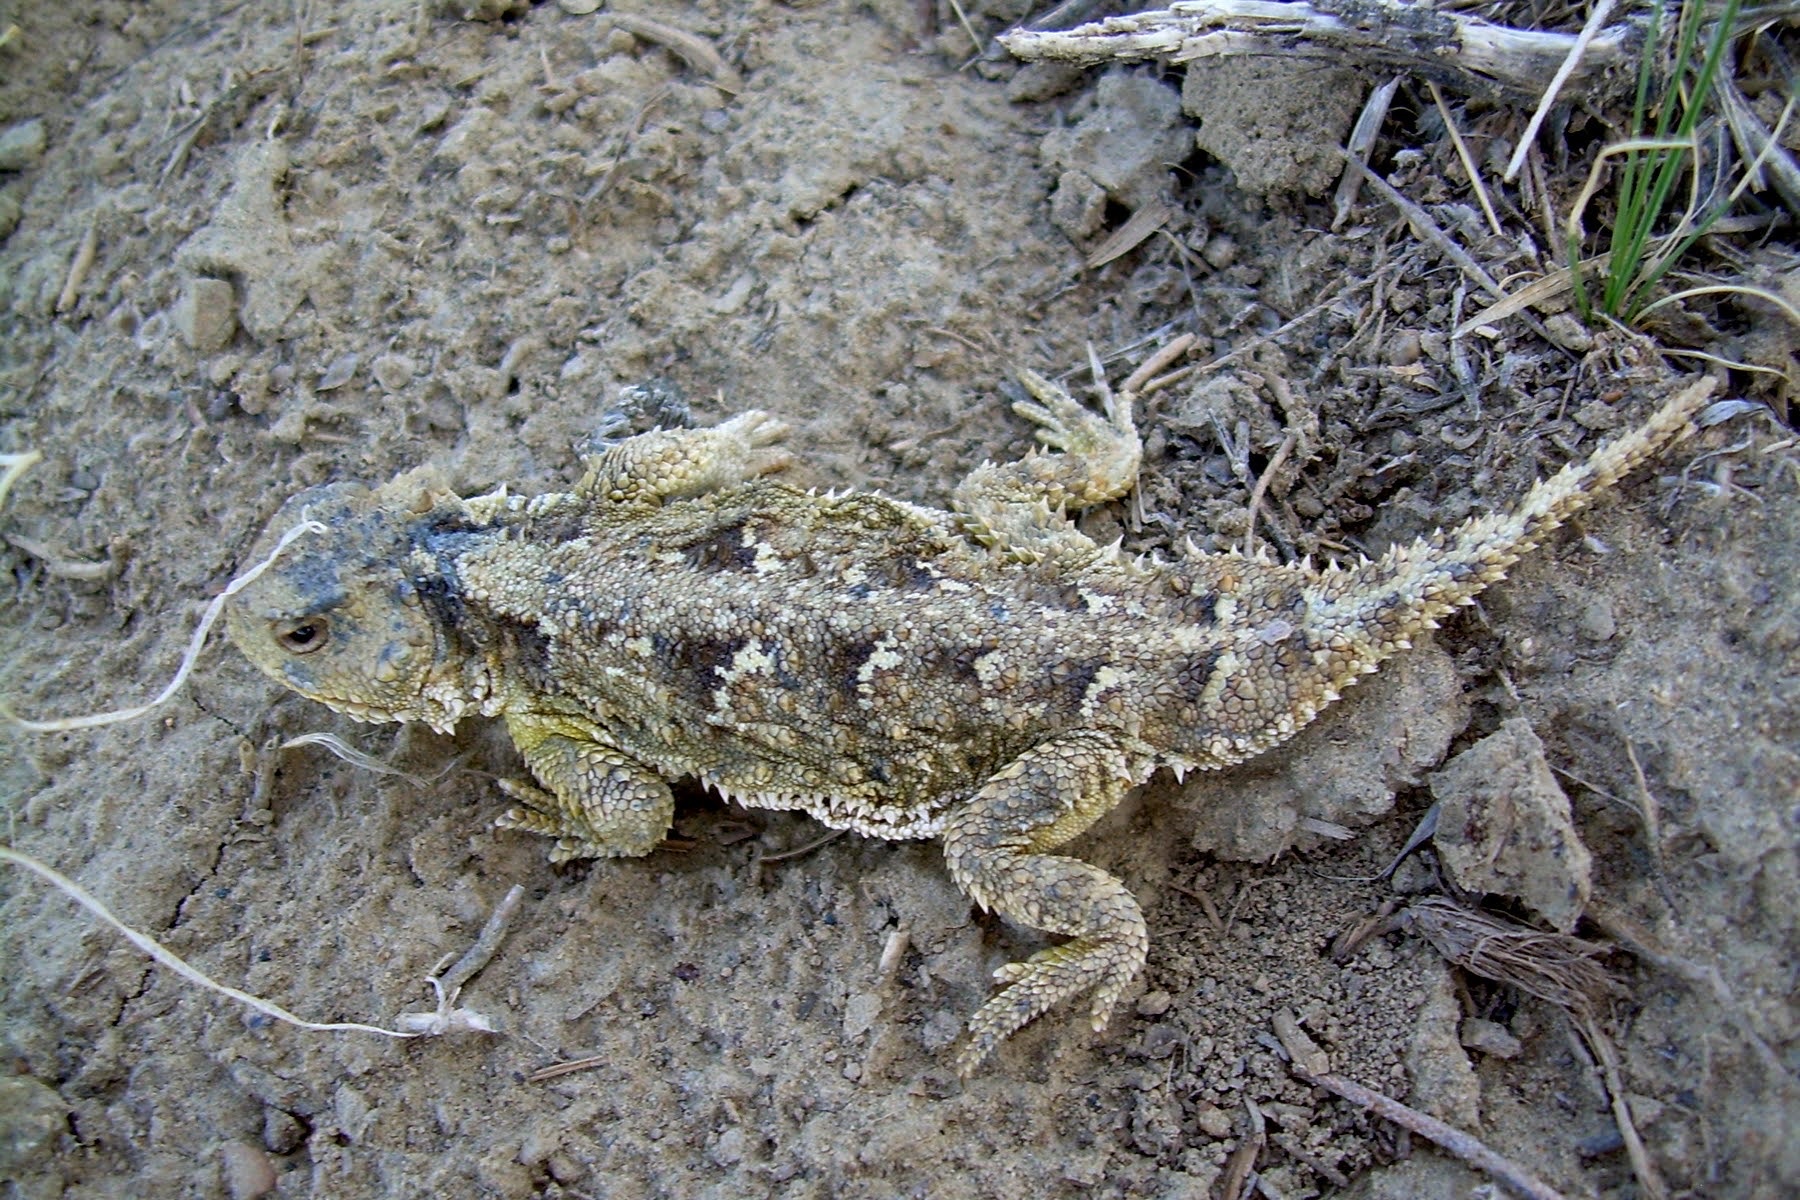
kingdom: Animalia
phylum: Chordata
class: Squamata
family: Phrynosomatidae
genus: Phrynosoma
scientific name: Phrynosoma hernandesi
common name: Greater short-horned lizard
